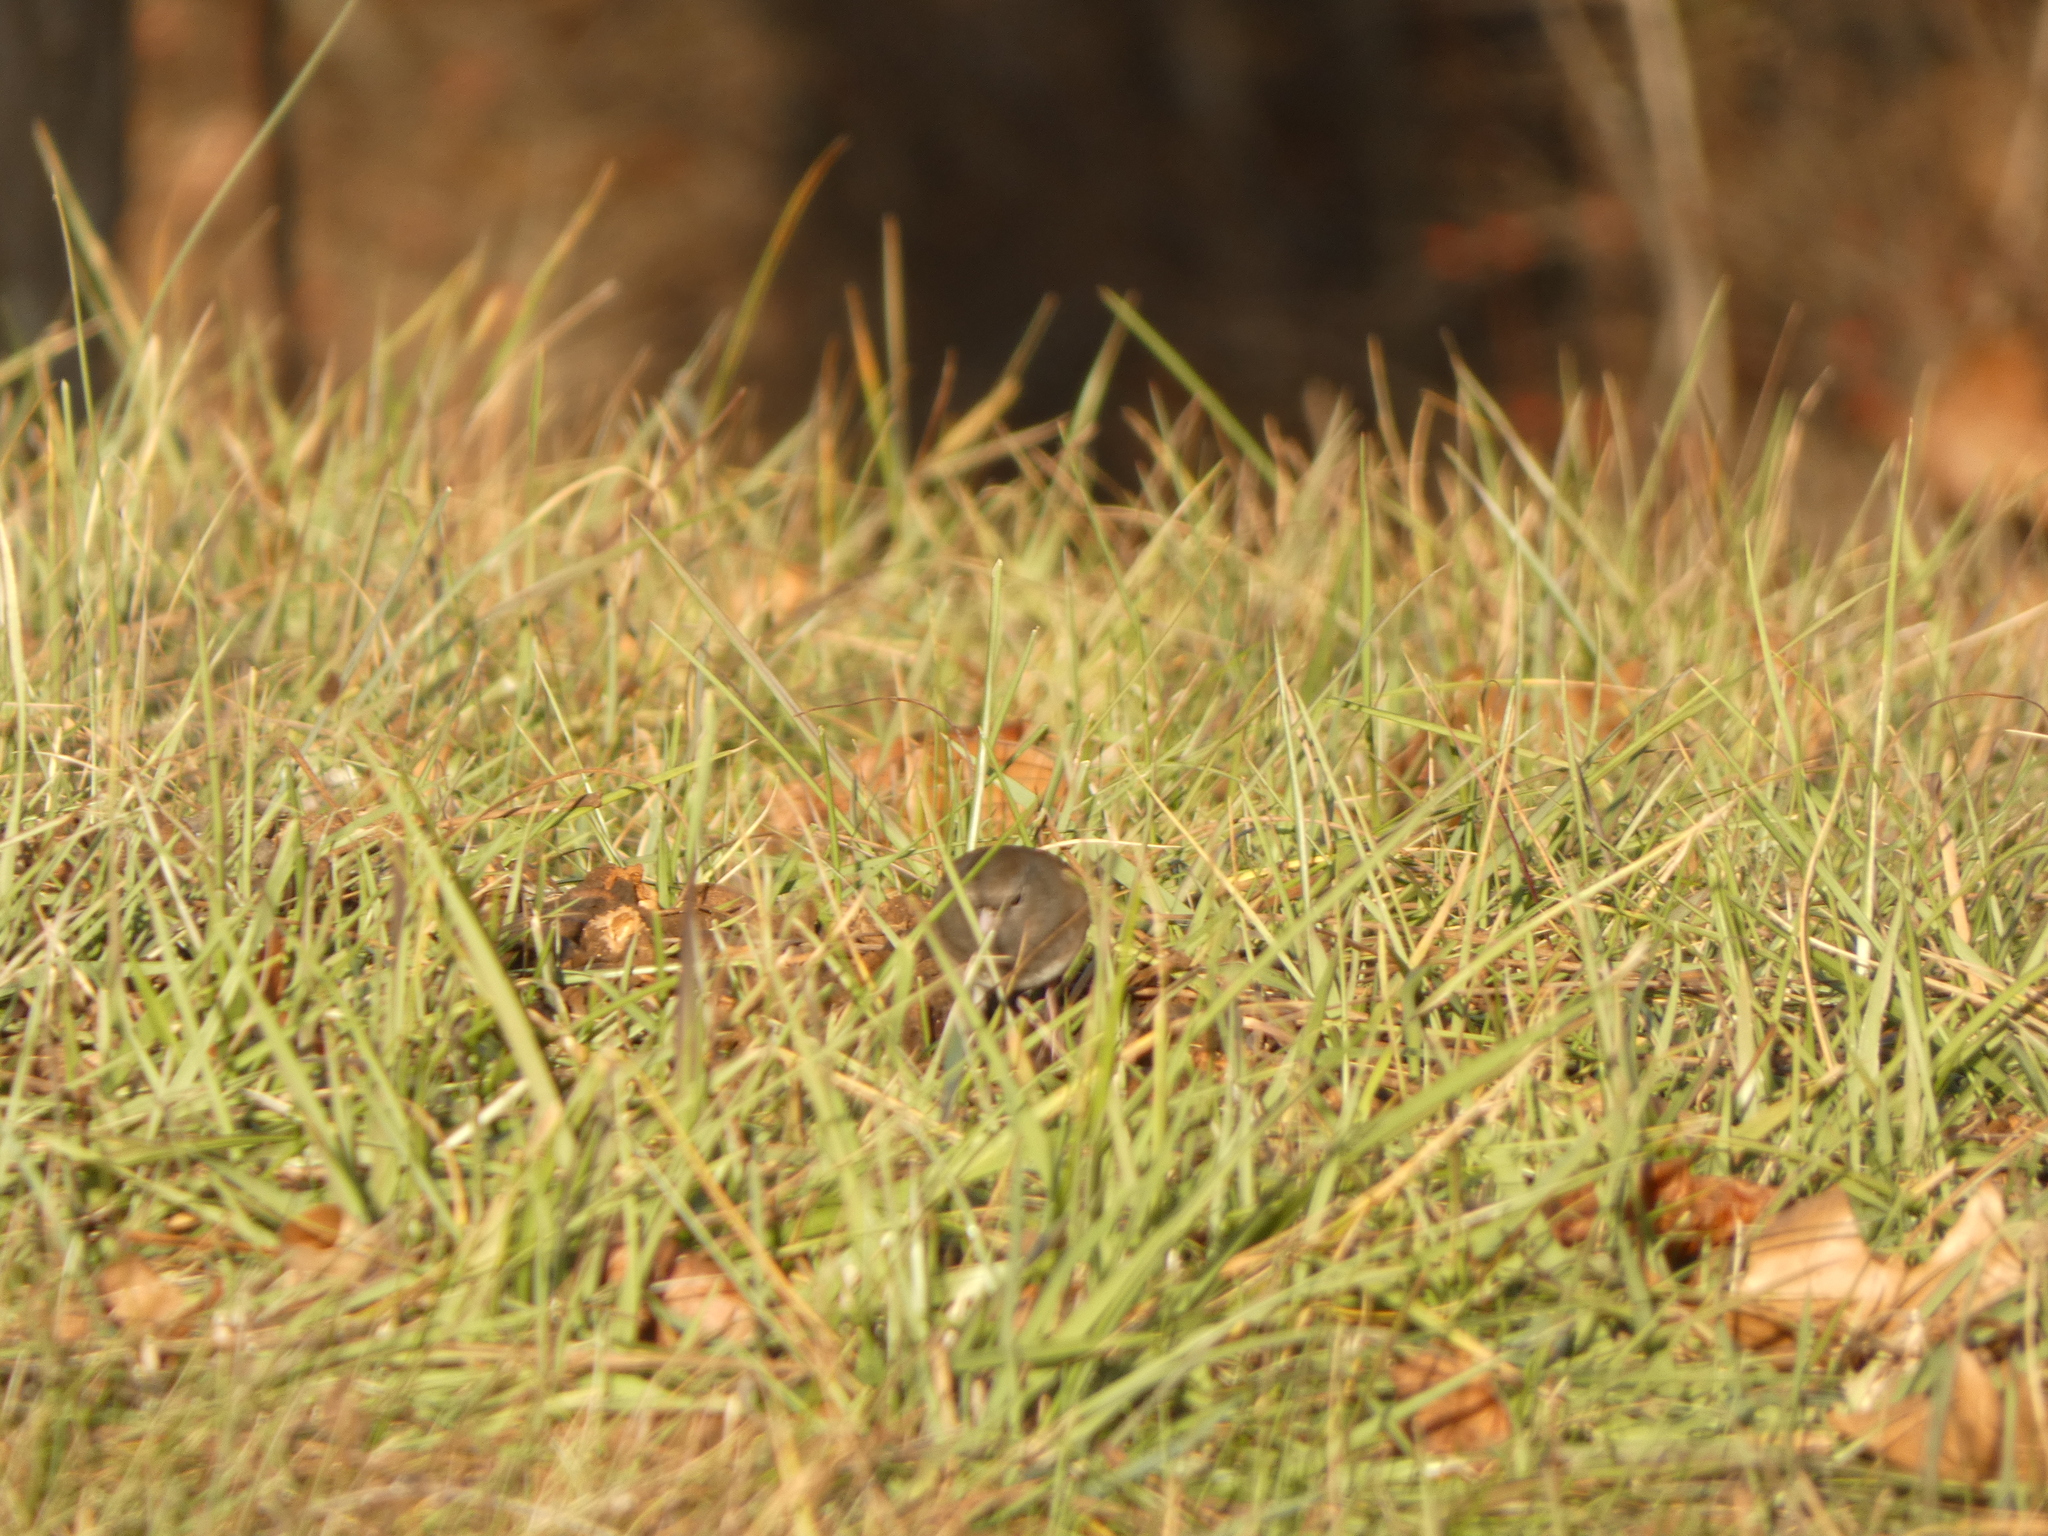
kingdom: Animalia
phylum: Chordata
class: Aves
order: Passeriformes
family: Passerellidae
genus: Junco
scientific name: Junco hyemalis
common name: Dark-eyed junco
